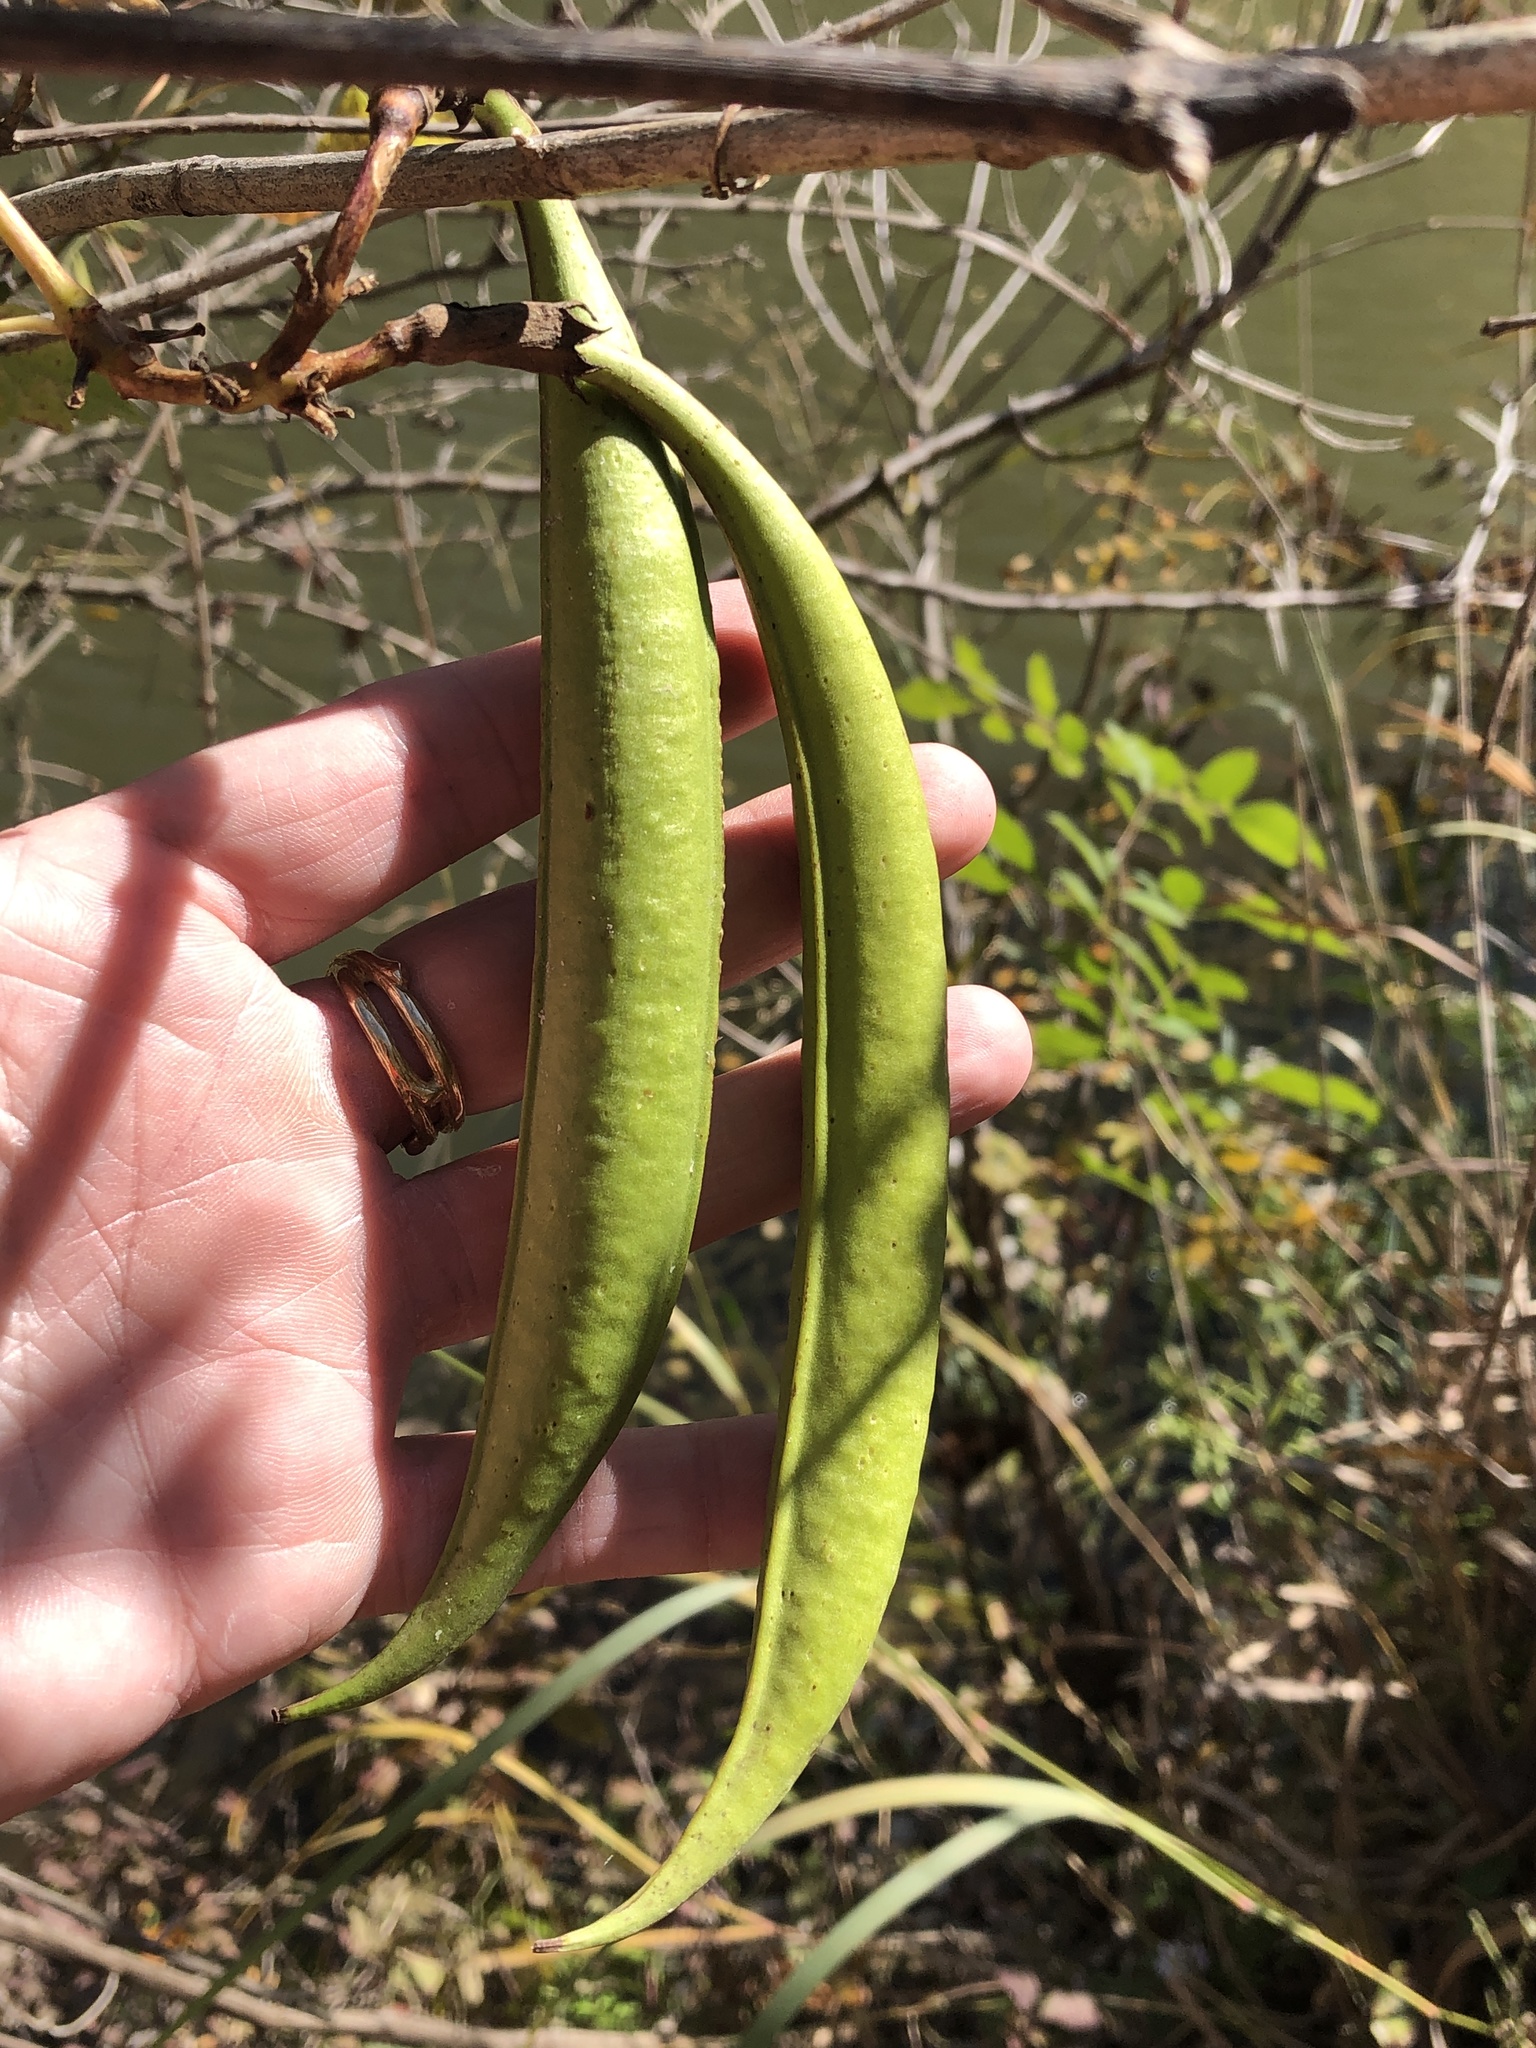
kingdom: Plantae
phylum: Tracheophyta
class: Magnoliopsida
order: Lamiales
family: Bignoniaceae
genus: Campsis
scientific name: Campsis radicans
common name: Trumpet-creeper
